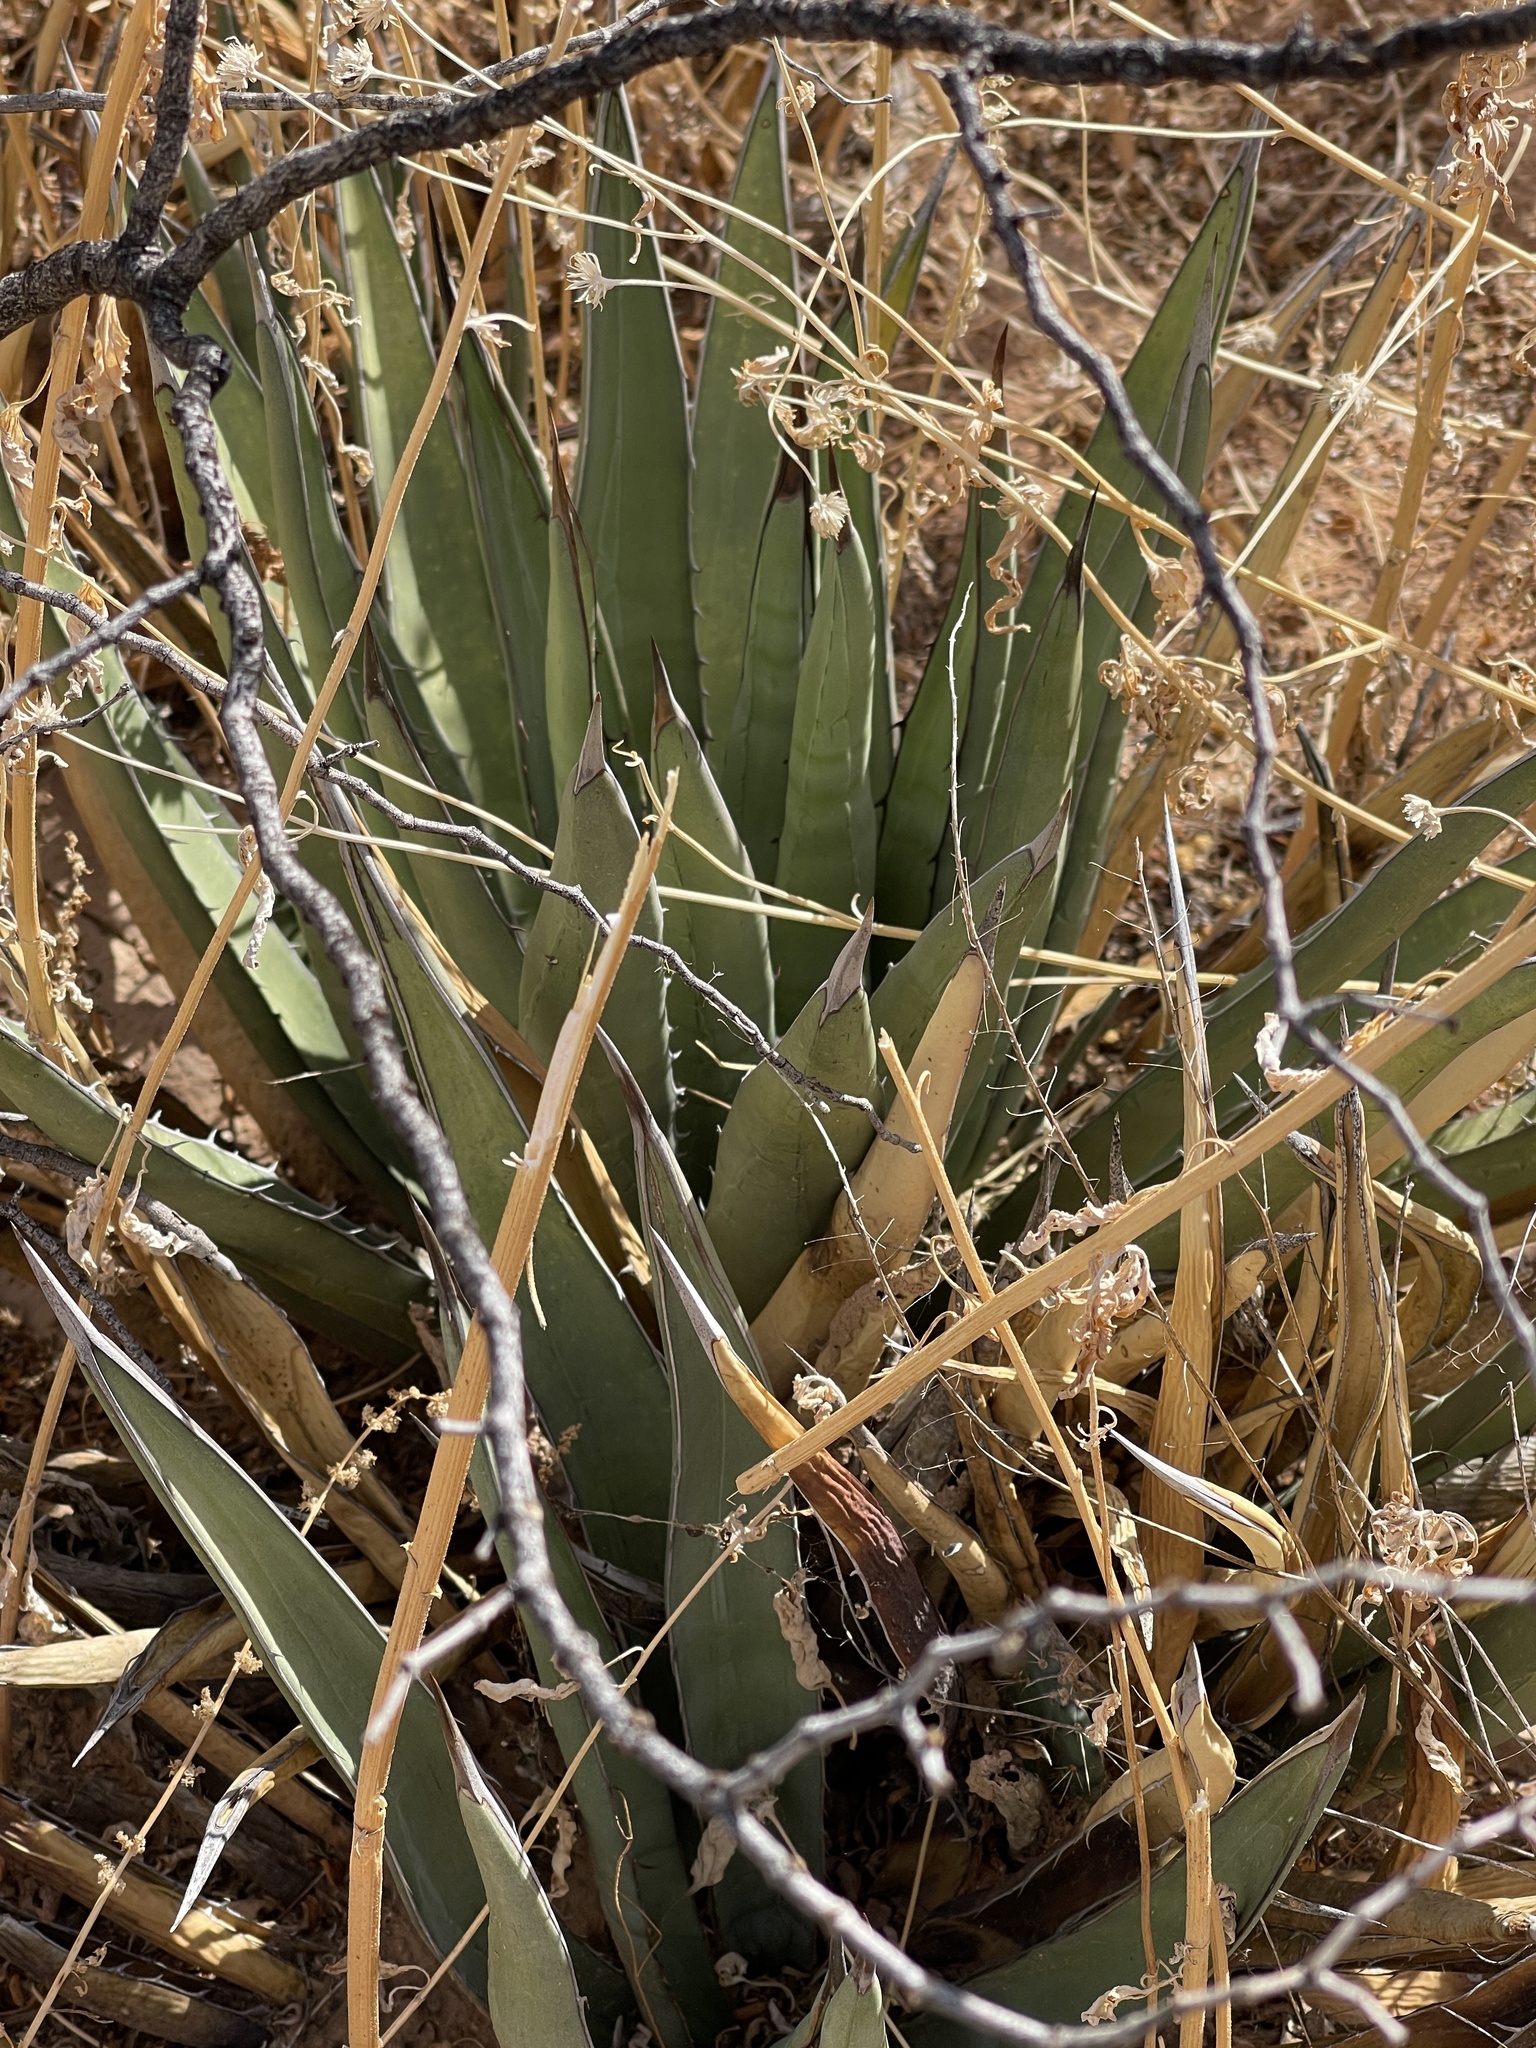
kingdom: Plantae
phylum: Tracheophyta
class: Liliopsida
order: Asparagales
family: Asparagaceae
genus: Agave
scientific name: Agave lechuguilla
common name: Lecheguilla agave
